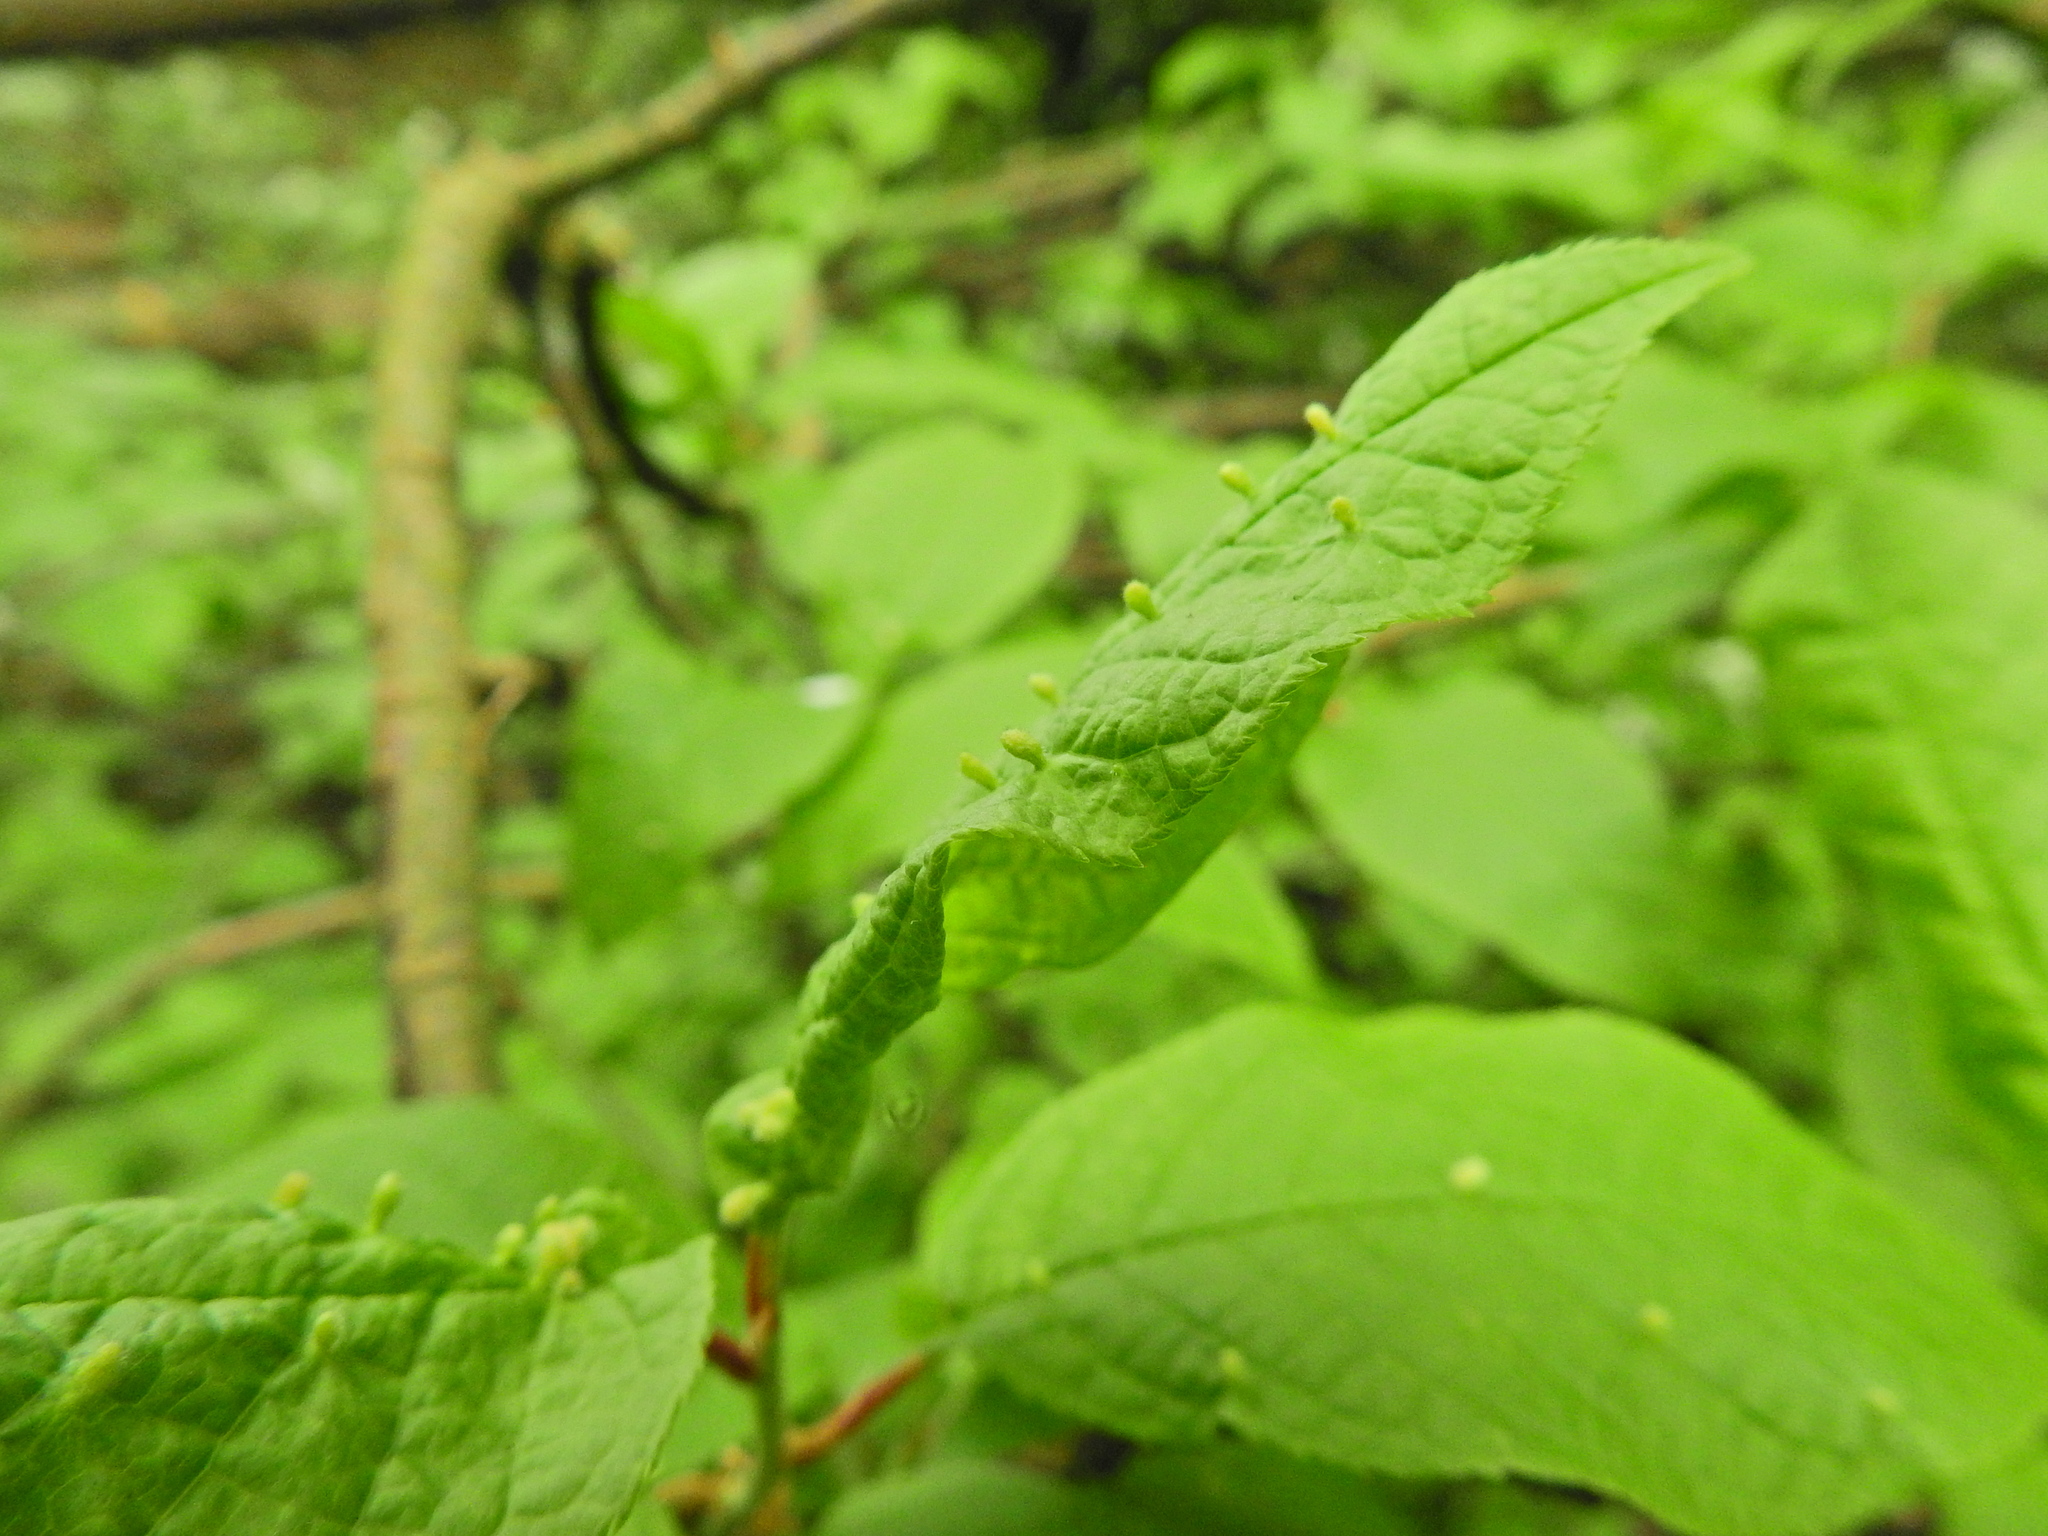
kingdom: Animalia
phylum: Arthropoda
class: Arachnida
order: Trombidiformes
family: Eriophyidae
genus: Phyllocoptes
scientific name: Phyllocoptes eupadi
